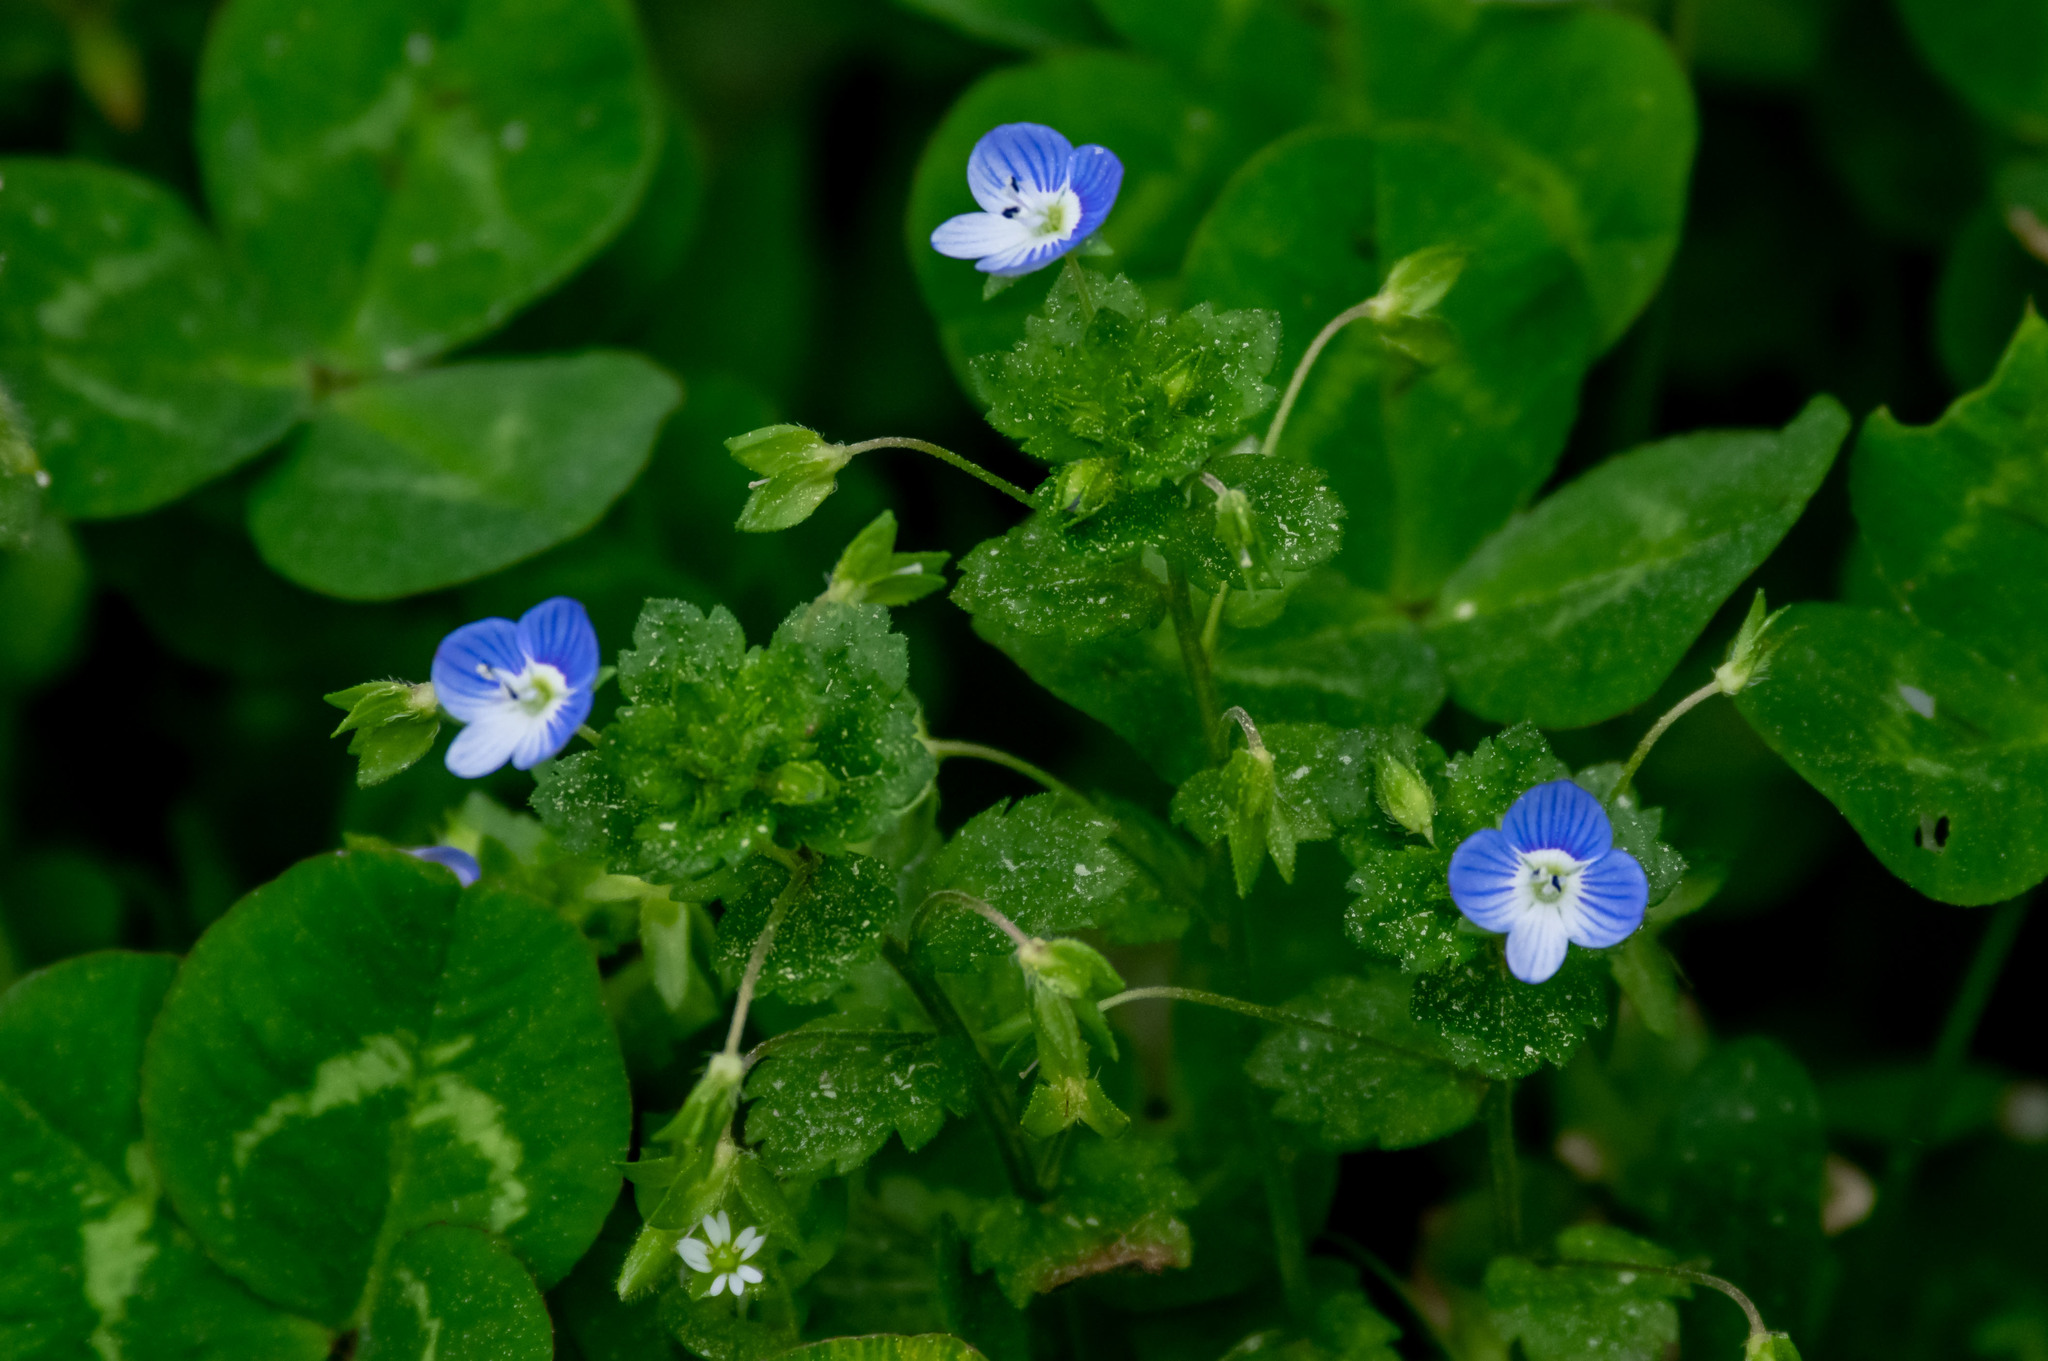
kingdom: Plantae
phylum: Tracheophyta
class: Magnoliopsida
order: Lamiales
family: Plantaginaceae
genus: Veronica
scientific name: Veronica persica
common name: Common field-speedwell
